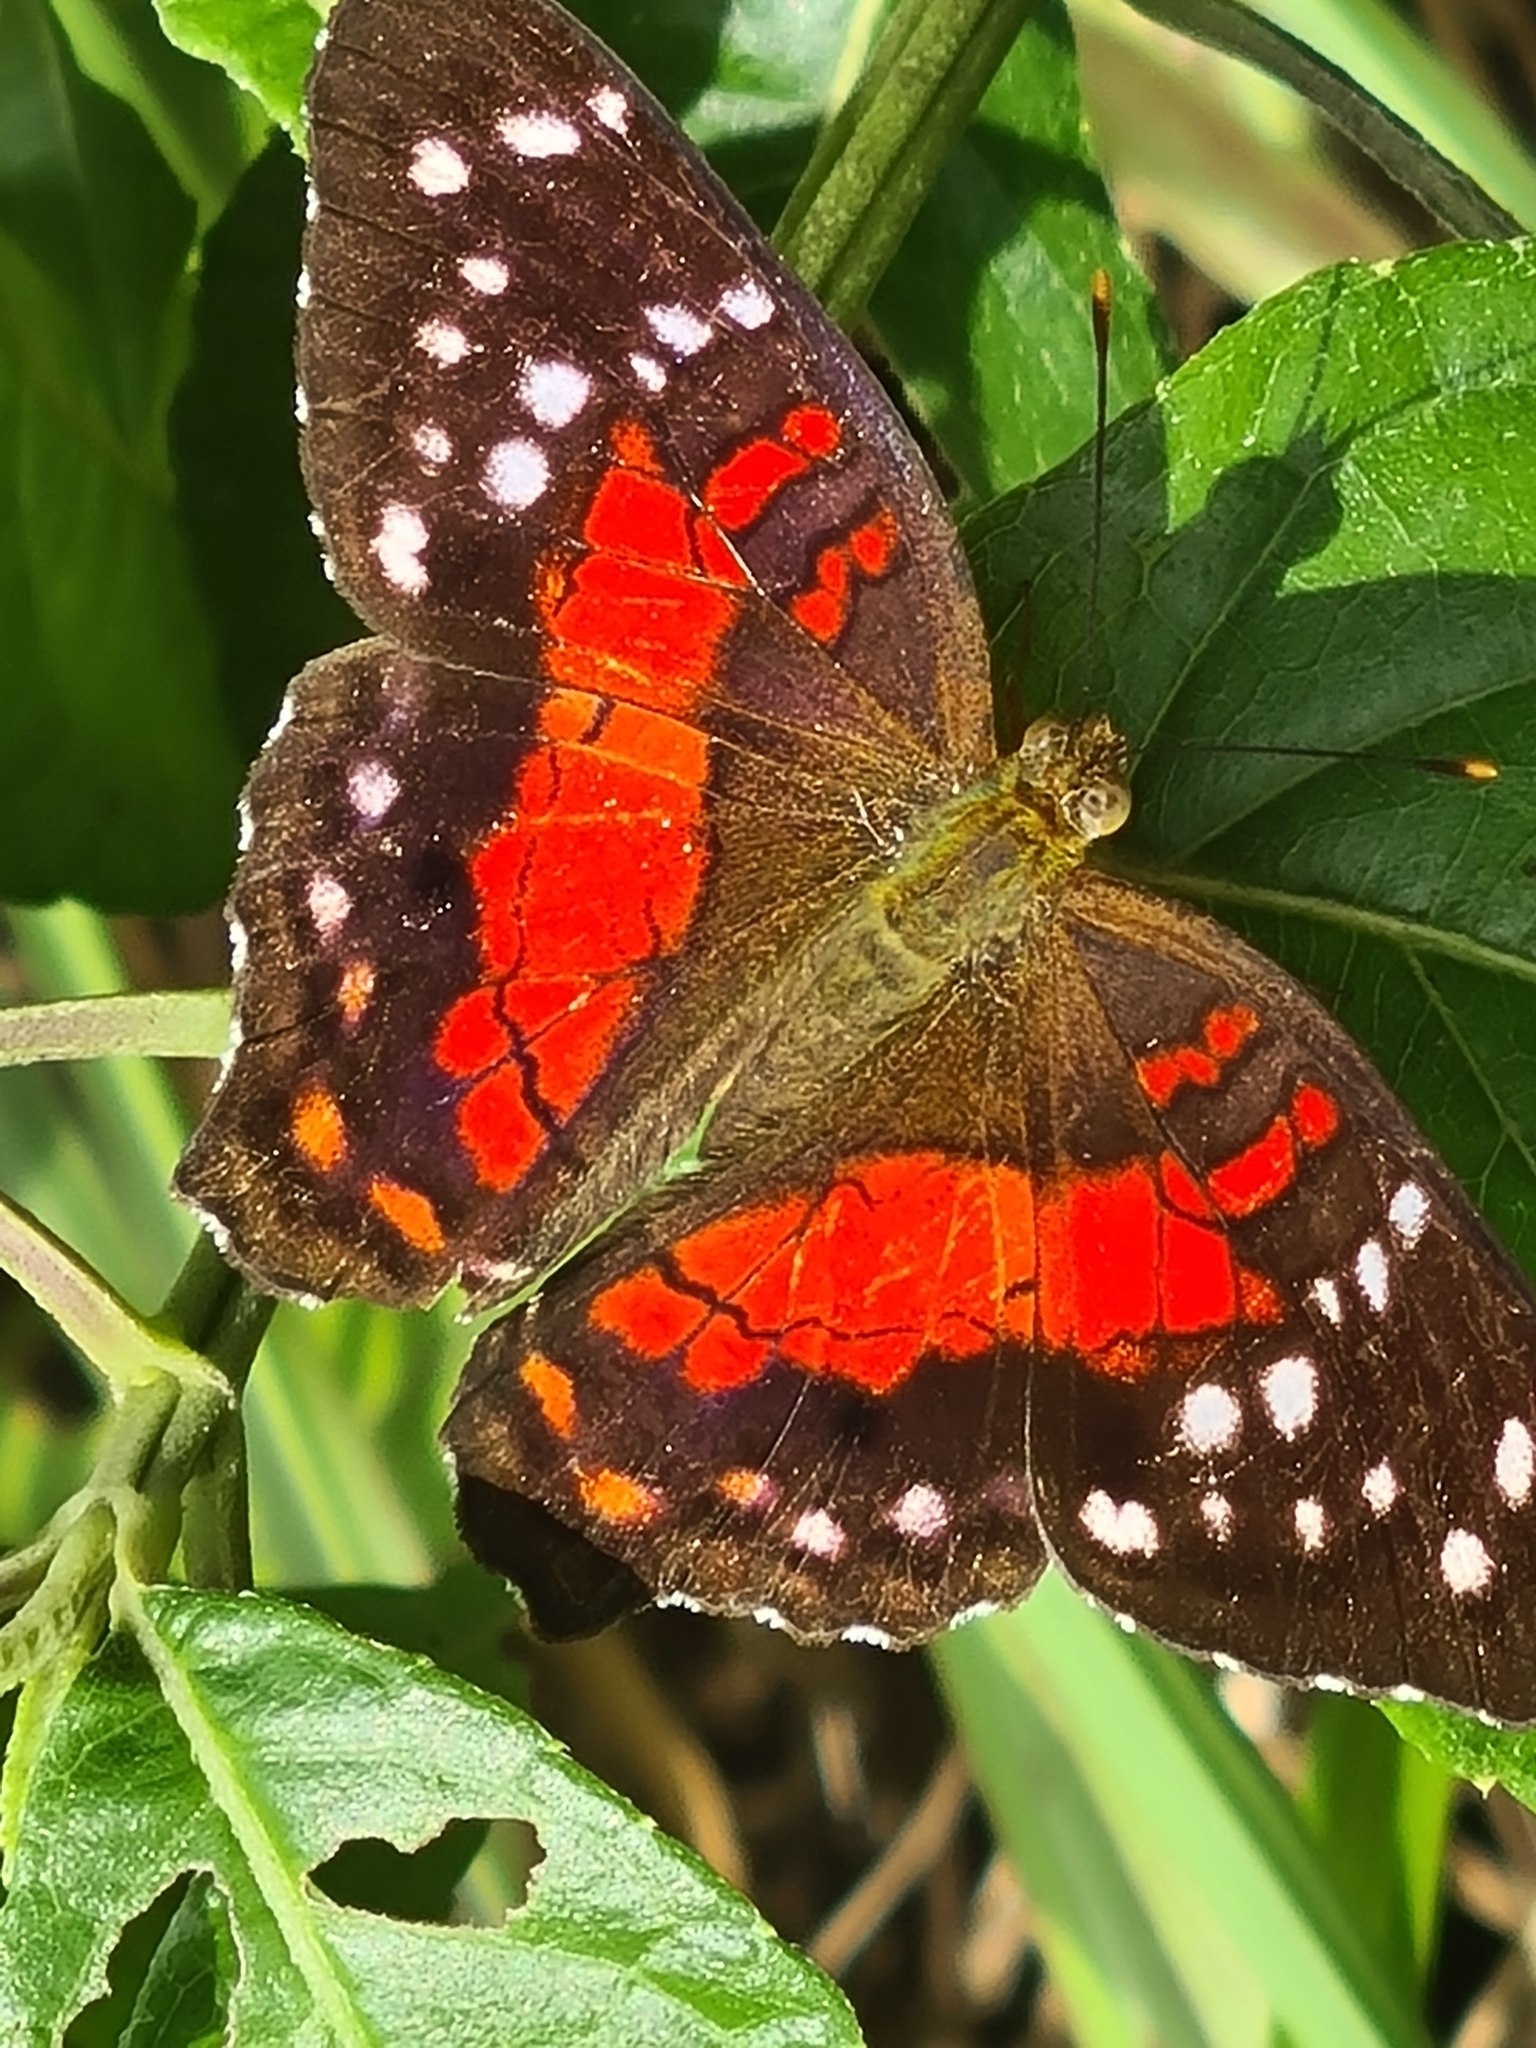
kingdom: Animalia
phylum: Arthropoda
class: Insecta
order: Lepidoptera
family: Nymphalidae
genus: Anartia
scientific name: Anartia amathea
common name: Red peacock
